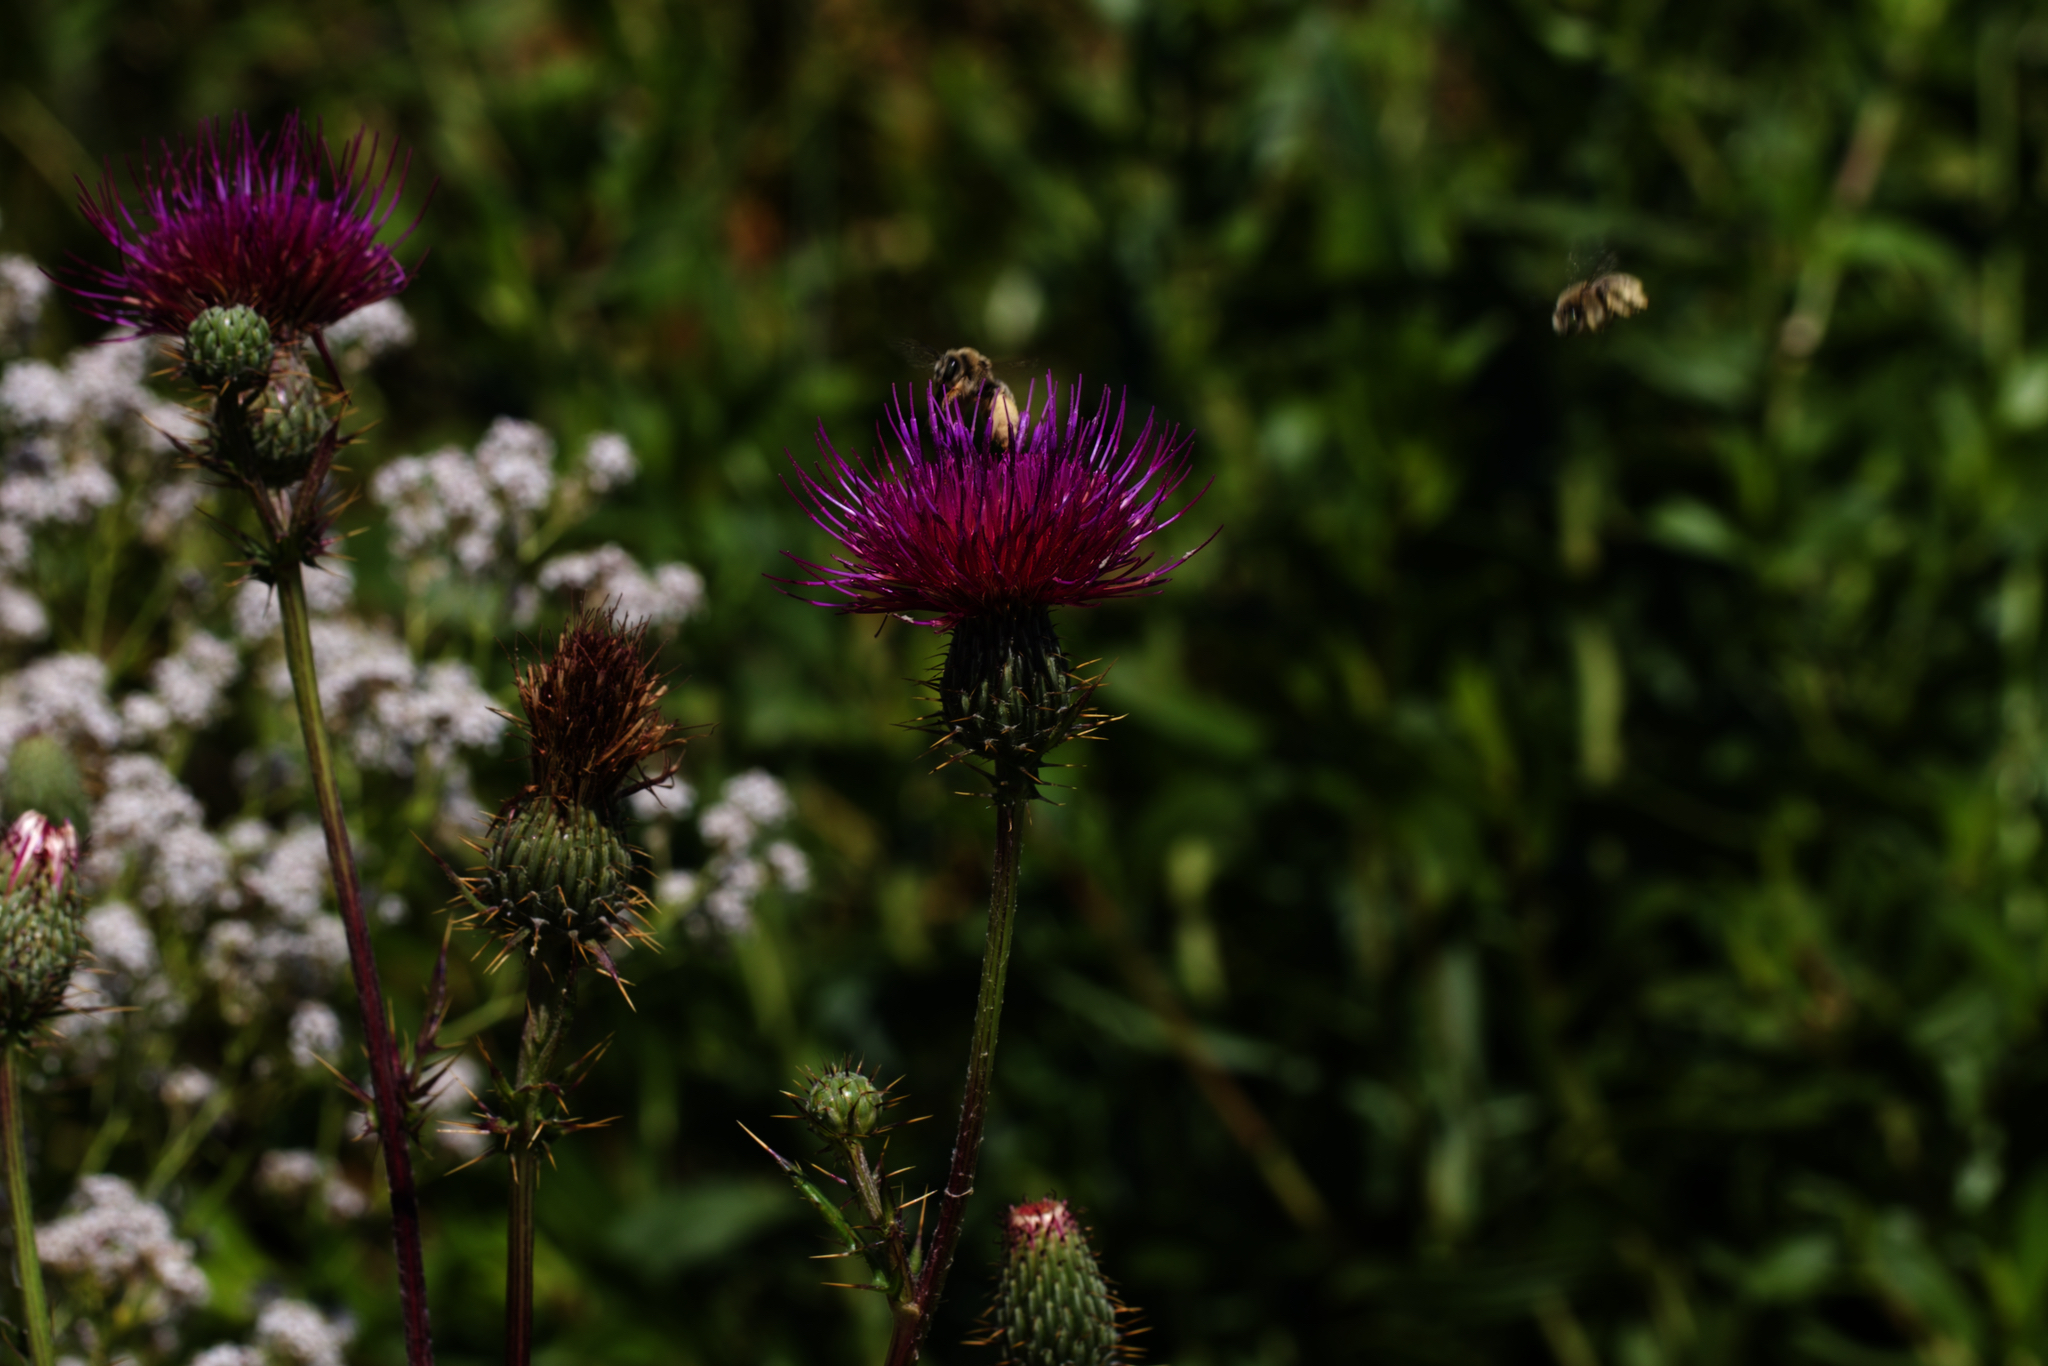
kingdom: Plantae
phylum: Tracheophyta
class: Magnoliopsida
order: Asterales
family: Asteraceae
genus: Cirsium
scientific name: Cirsium hydrophilum
